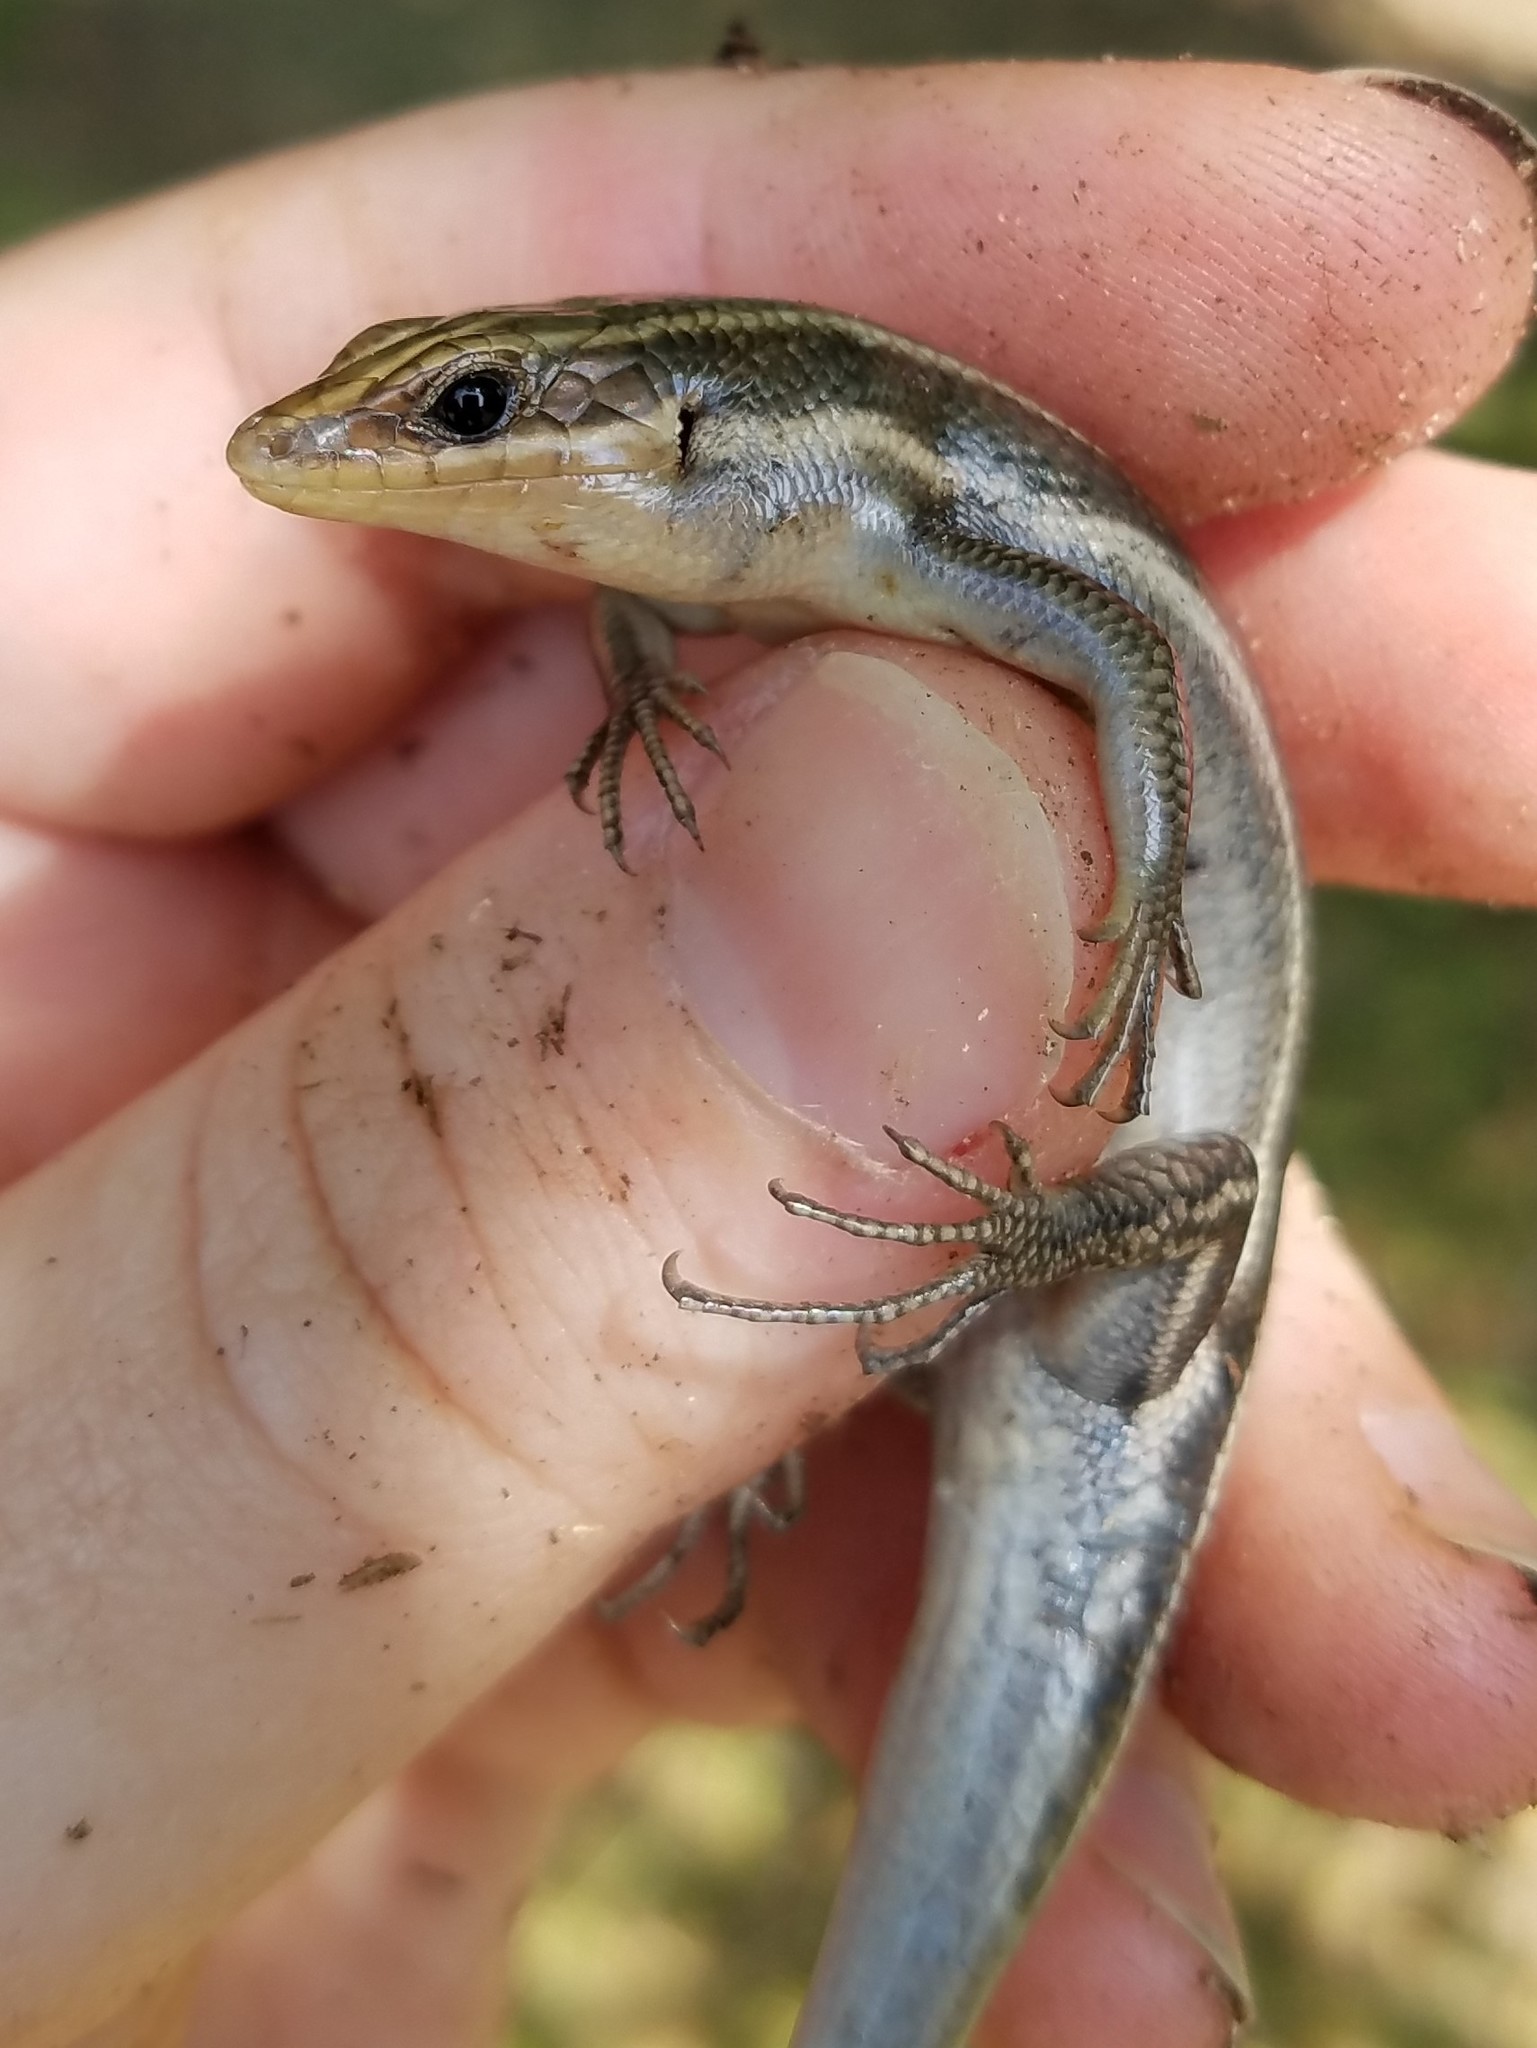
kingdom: Animalia
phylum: Chordata
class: Squamata
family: Scincidae
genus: Plestiodon
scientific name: Plestiodon fasciatus
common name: Five-lined skink
